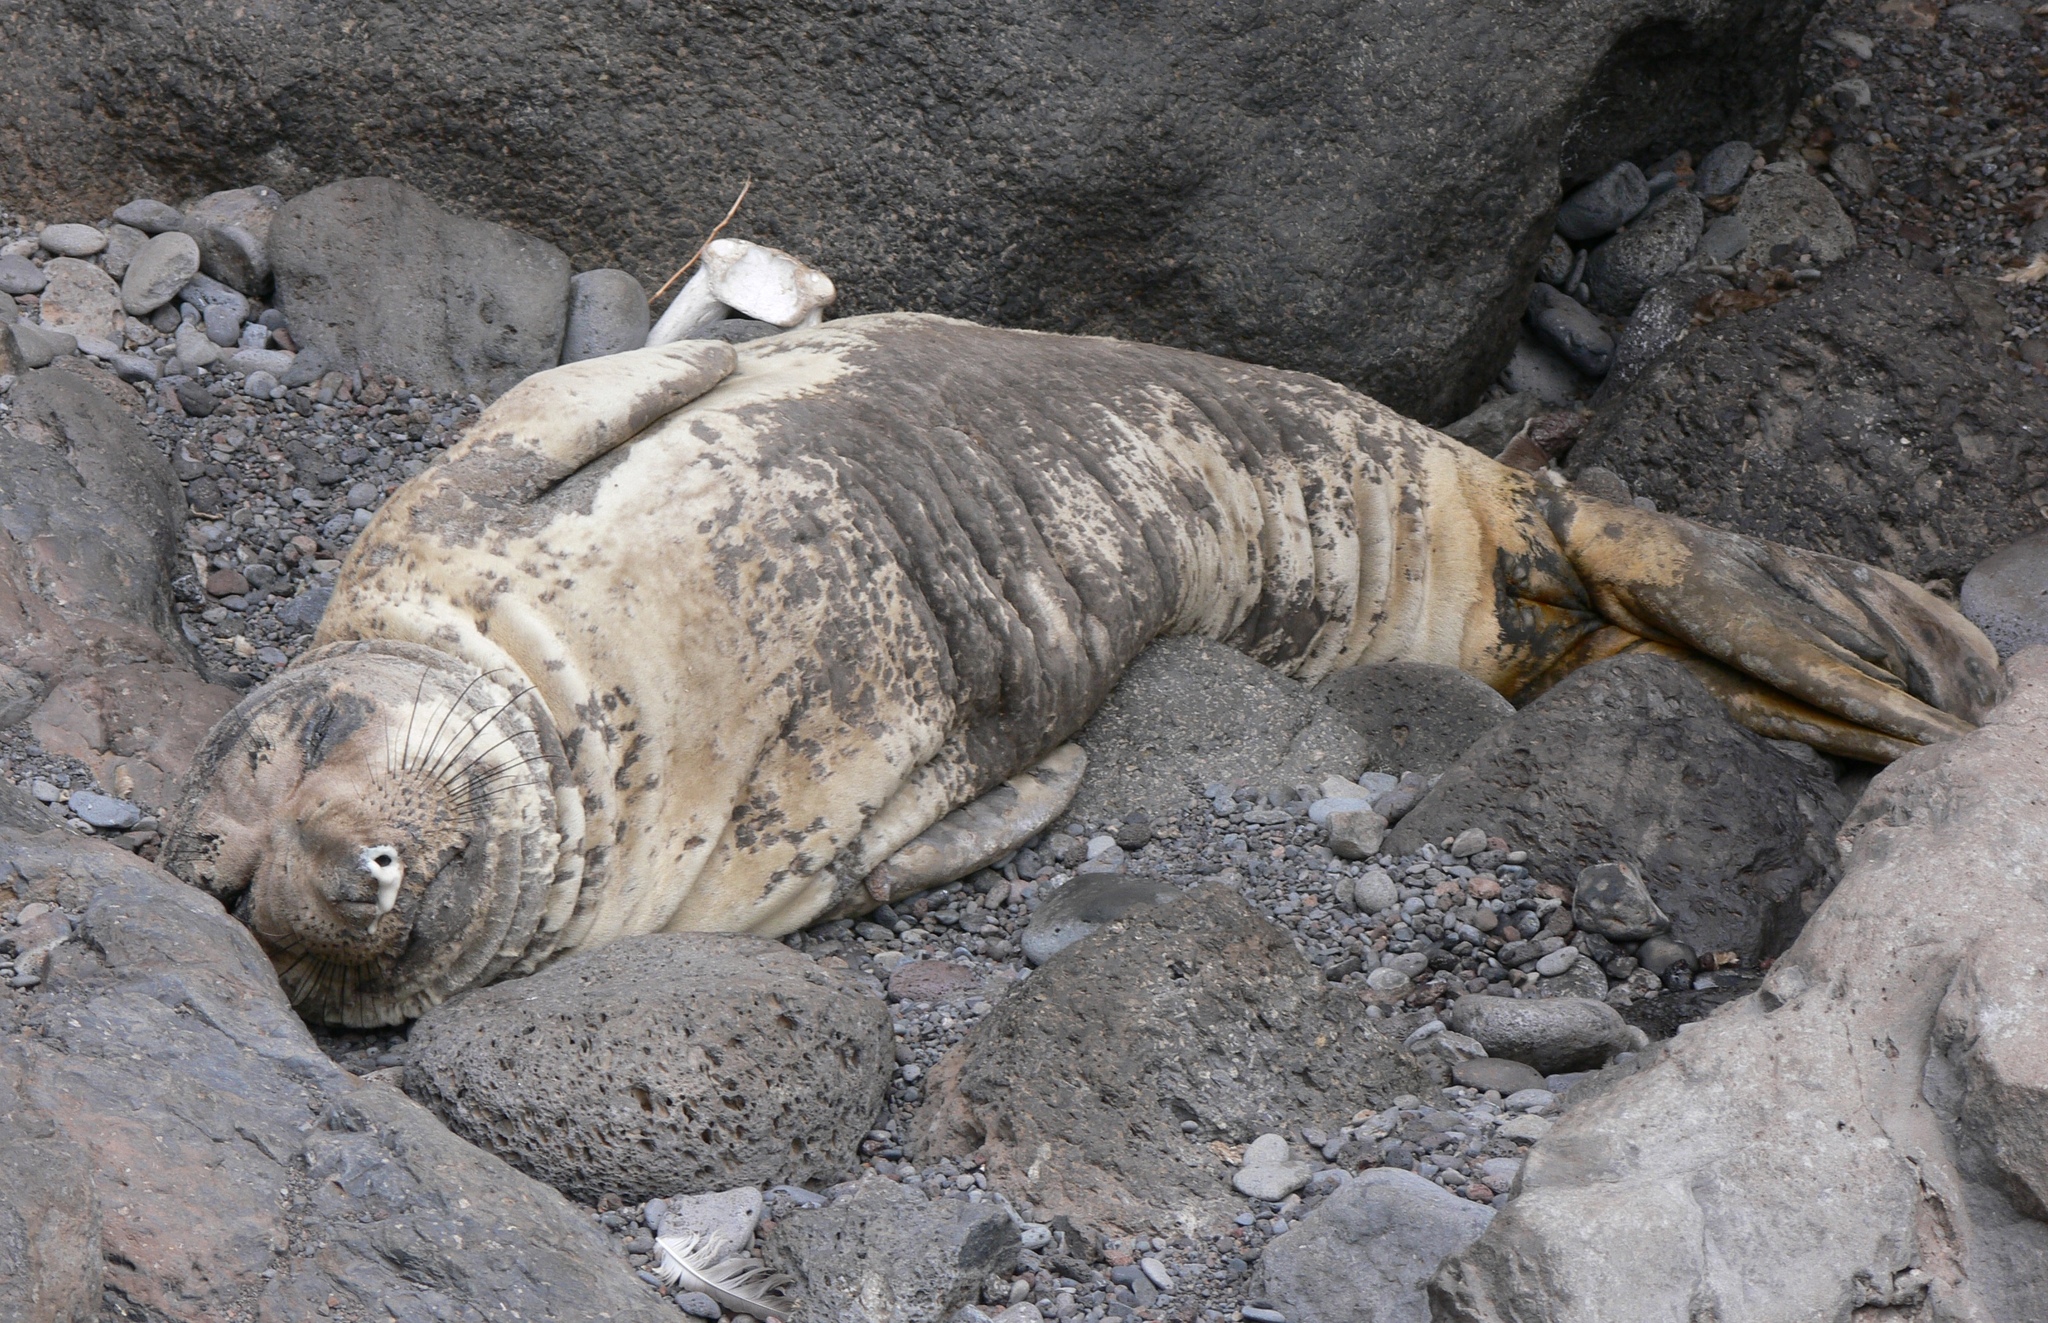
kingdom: Animalia
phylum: Chordata
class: Mammalia
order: Carnivora
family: Phocidae
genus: Mirounga
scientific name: Mirounga angustirostris
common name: Northern elephant seal
